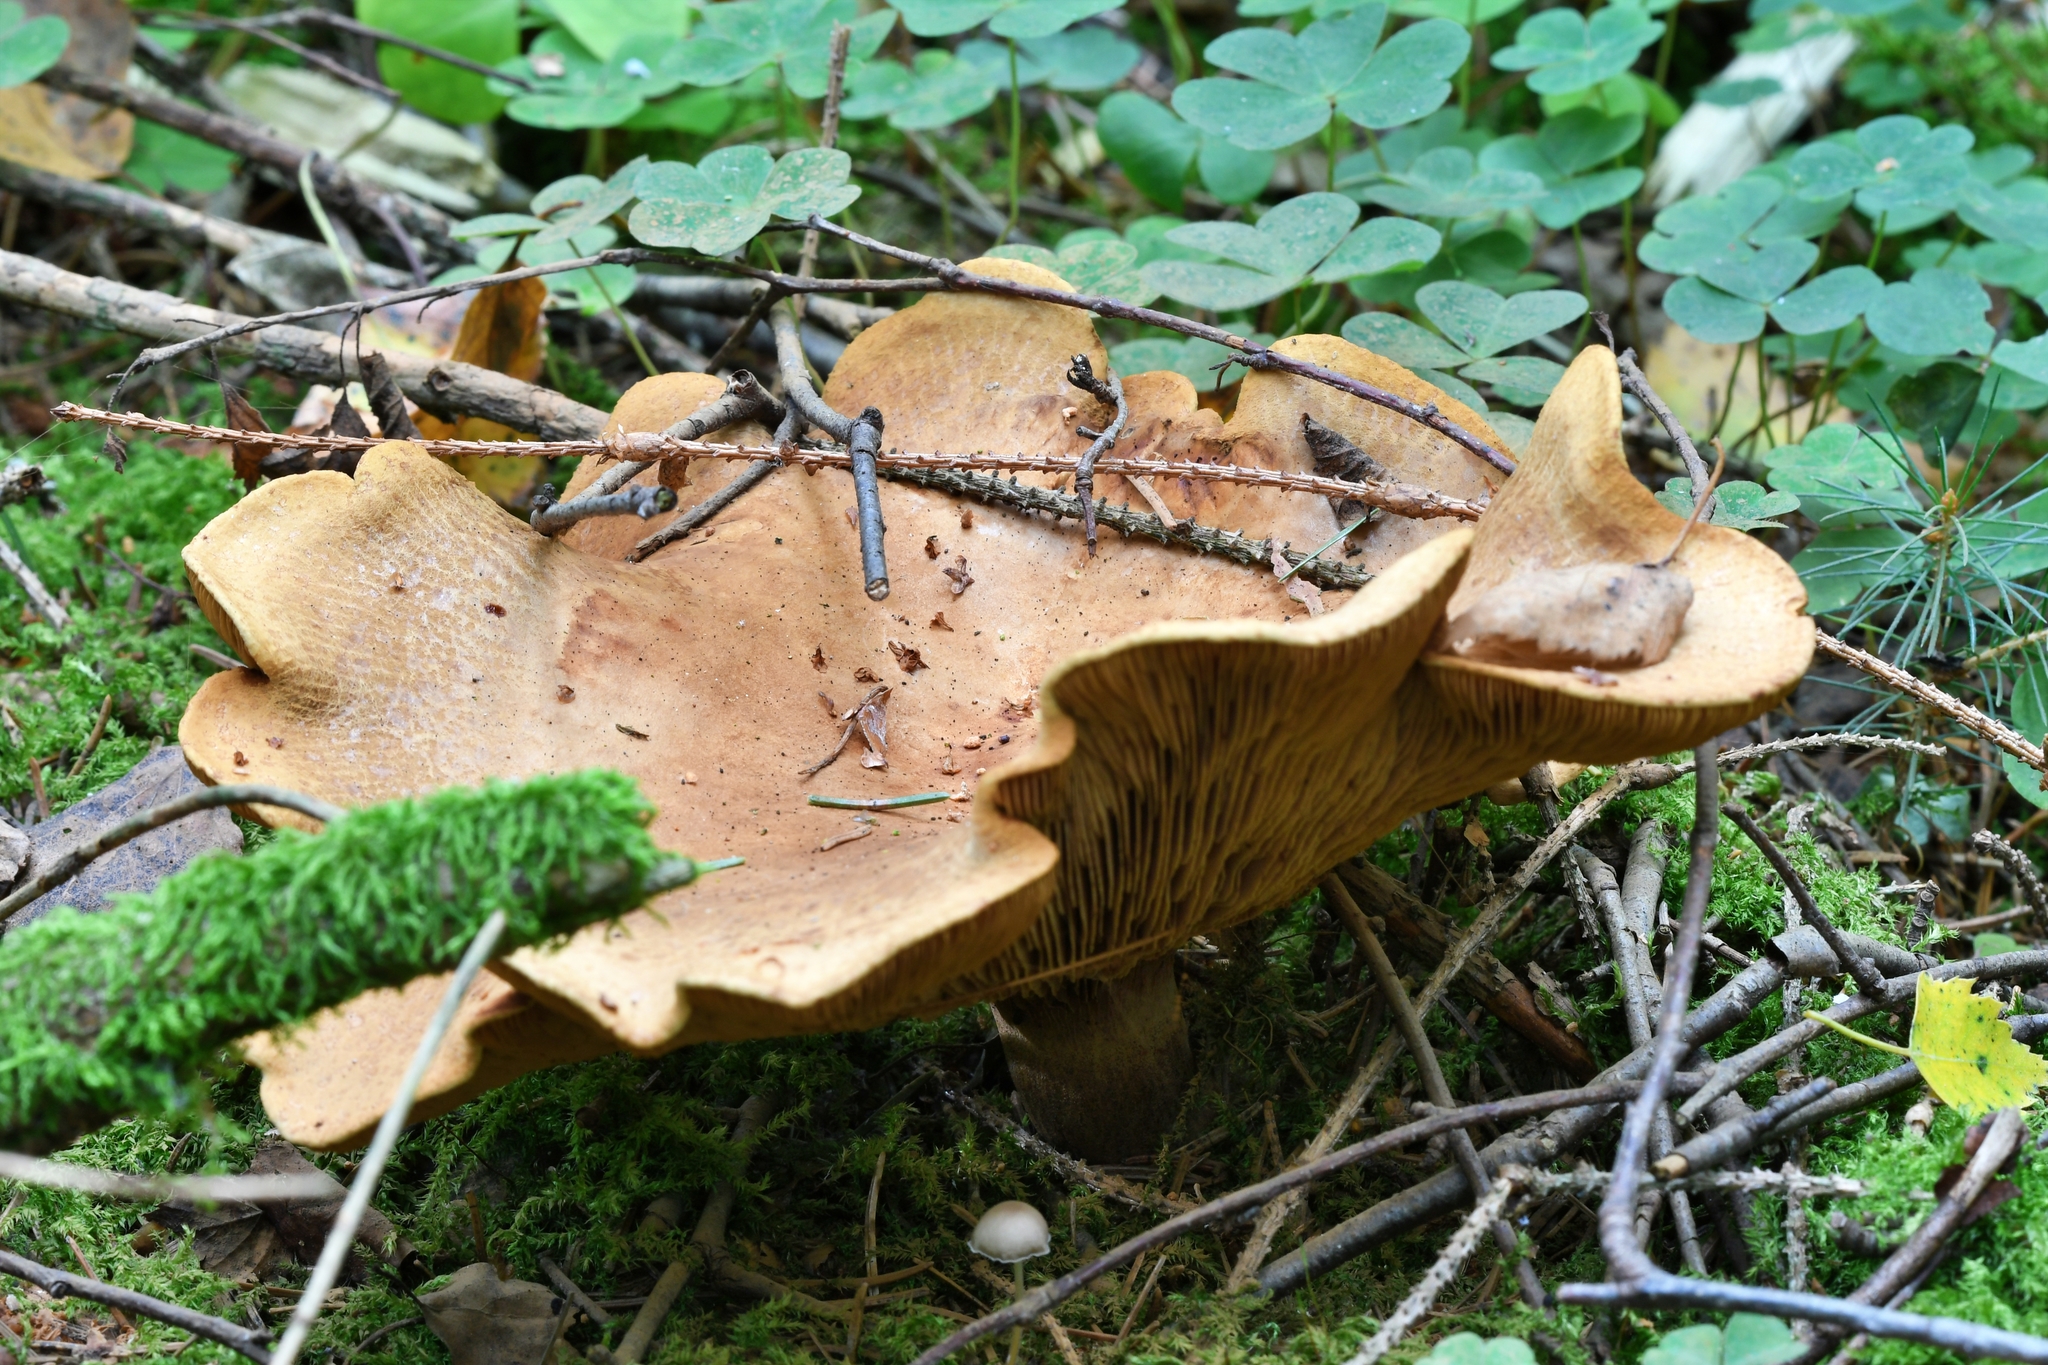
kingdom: Fungi
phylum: Basidiomycota
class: Agaricomycetes
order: Boletales
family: Paxillaceae
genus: Paxillus
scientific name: Paxillus involutus
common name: Brown roll rim
